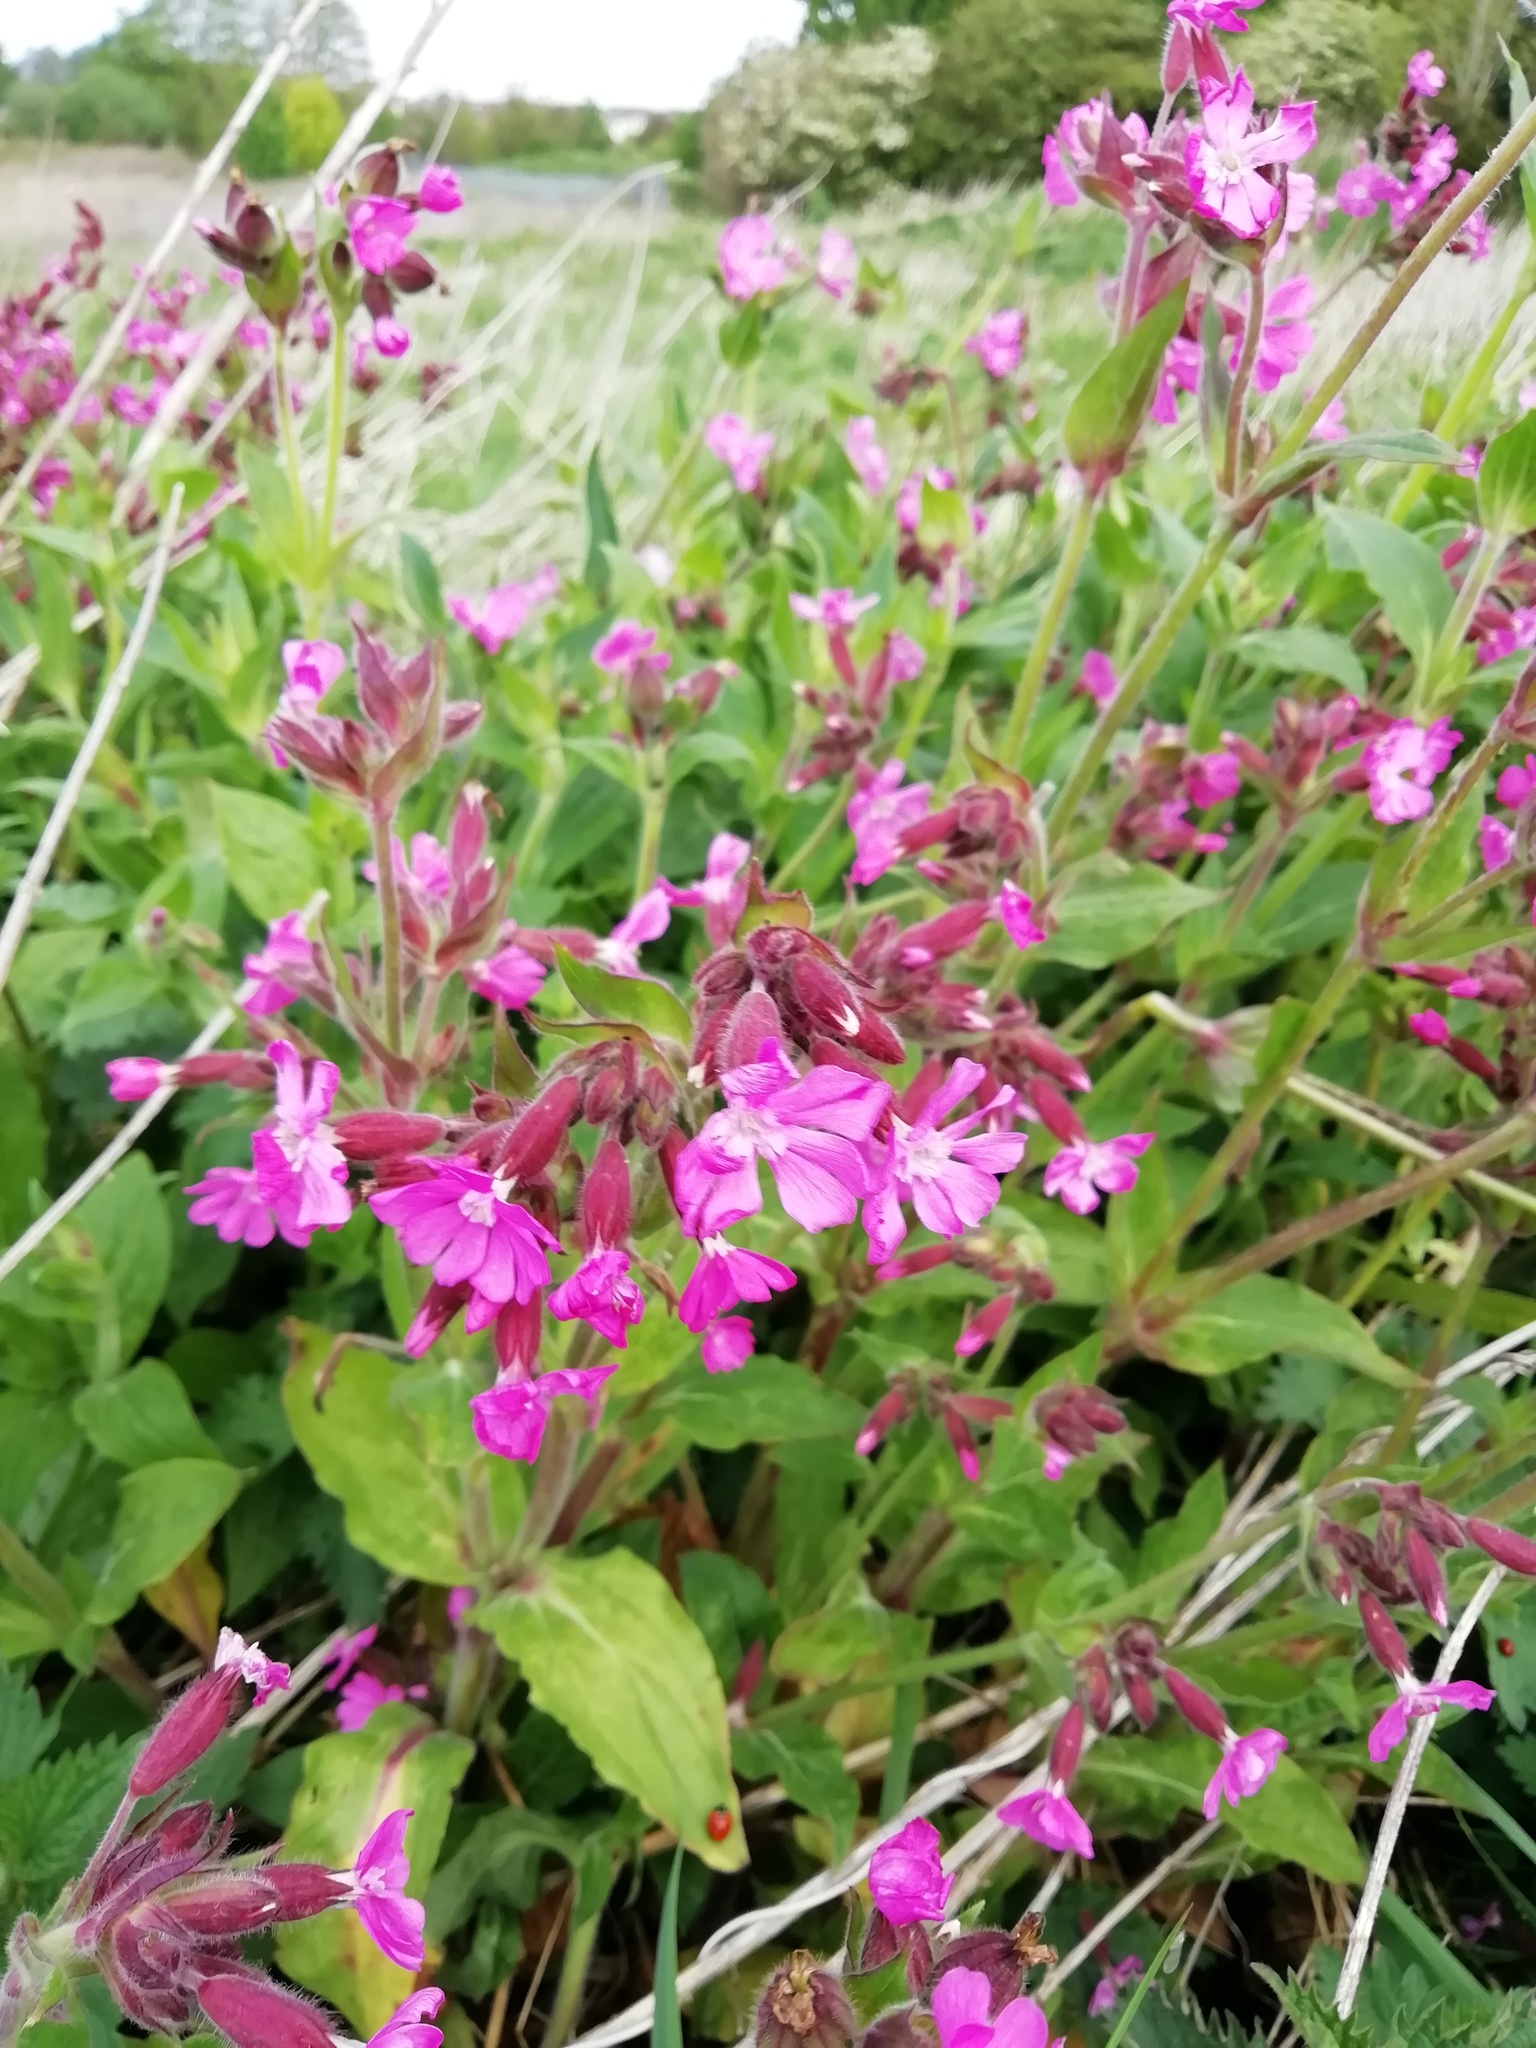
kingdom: Plantae
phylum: Tracheophyta
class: Magnoliopsida
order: Caryophyllales
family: Caryophyllaceae
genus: Silene
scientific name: Silene dioica
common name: Red campion
